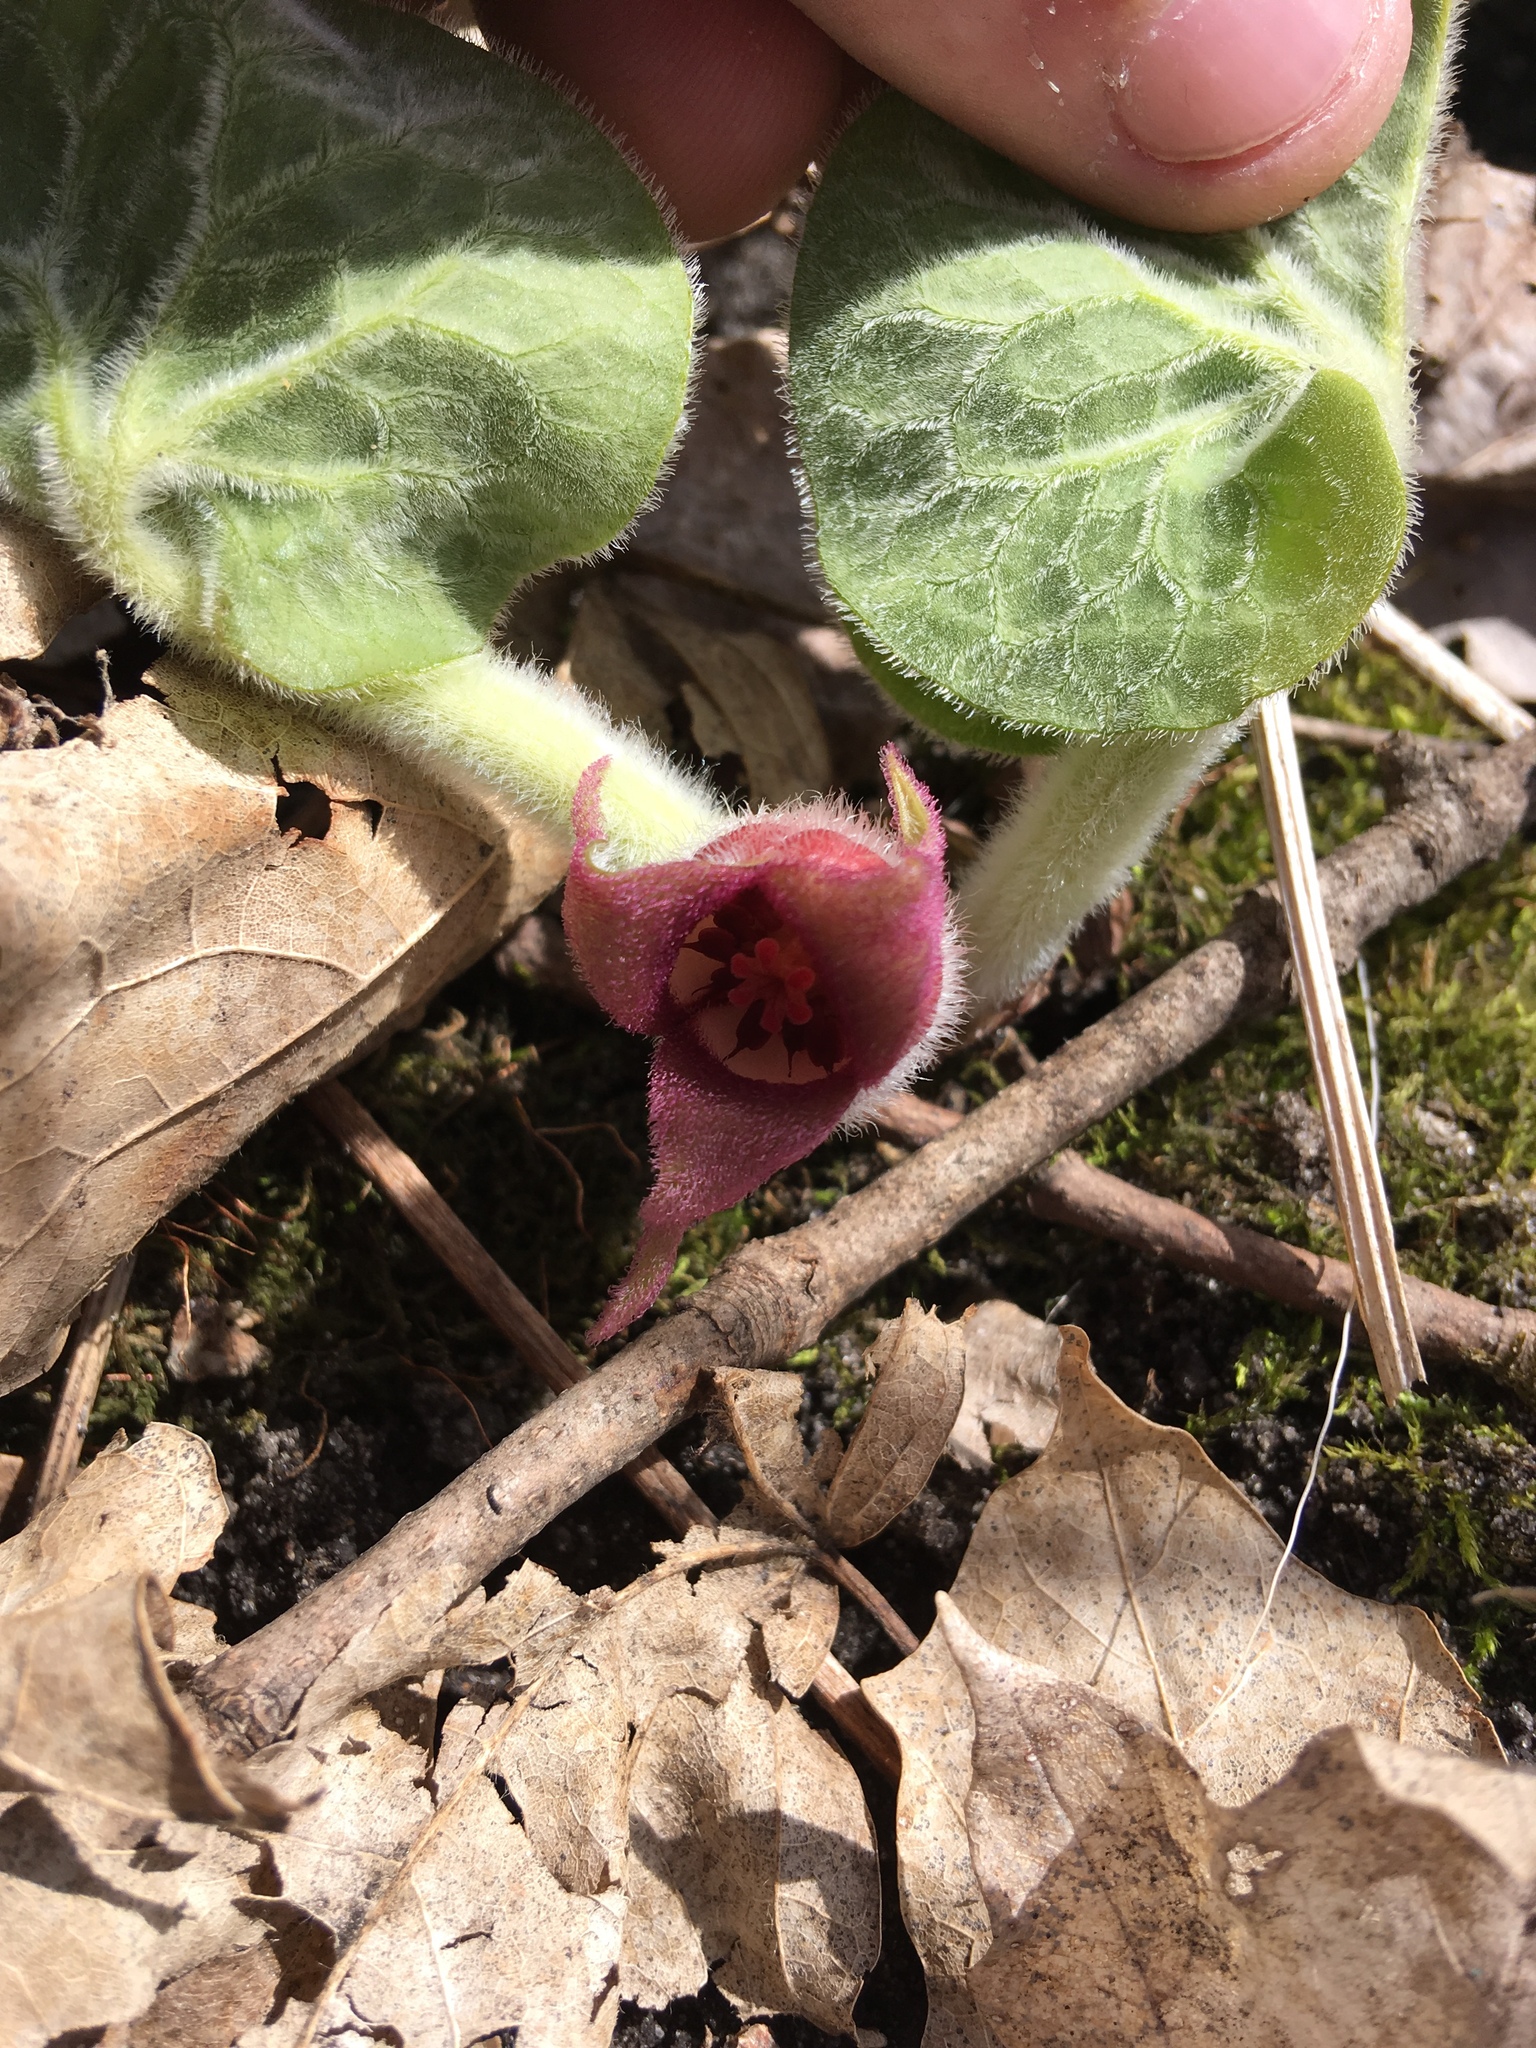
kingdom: Plantae
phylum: Tracheophyta
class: Magnoliopsida
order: Piperales
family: Aristolochiaceae
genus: Asarum
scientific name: Asarum canadense
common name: Wild ginger
